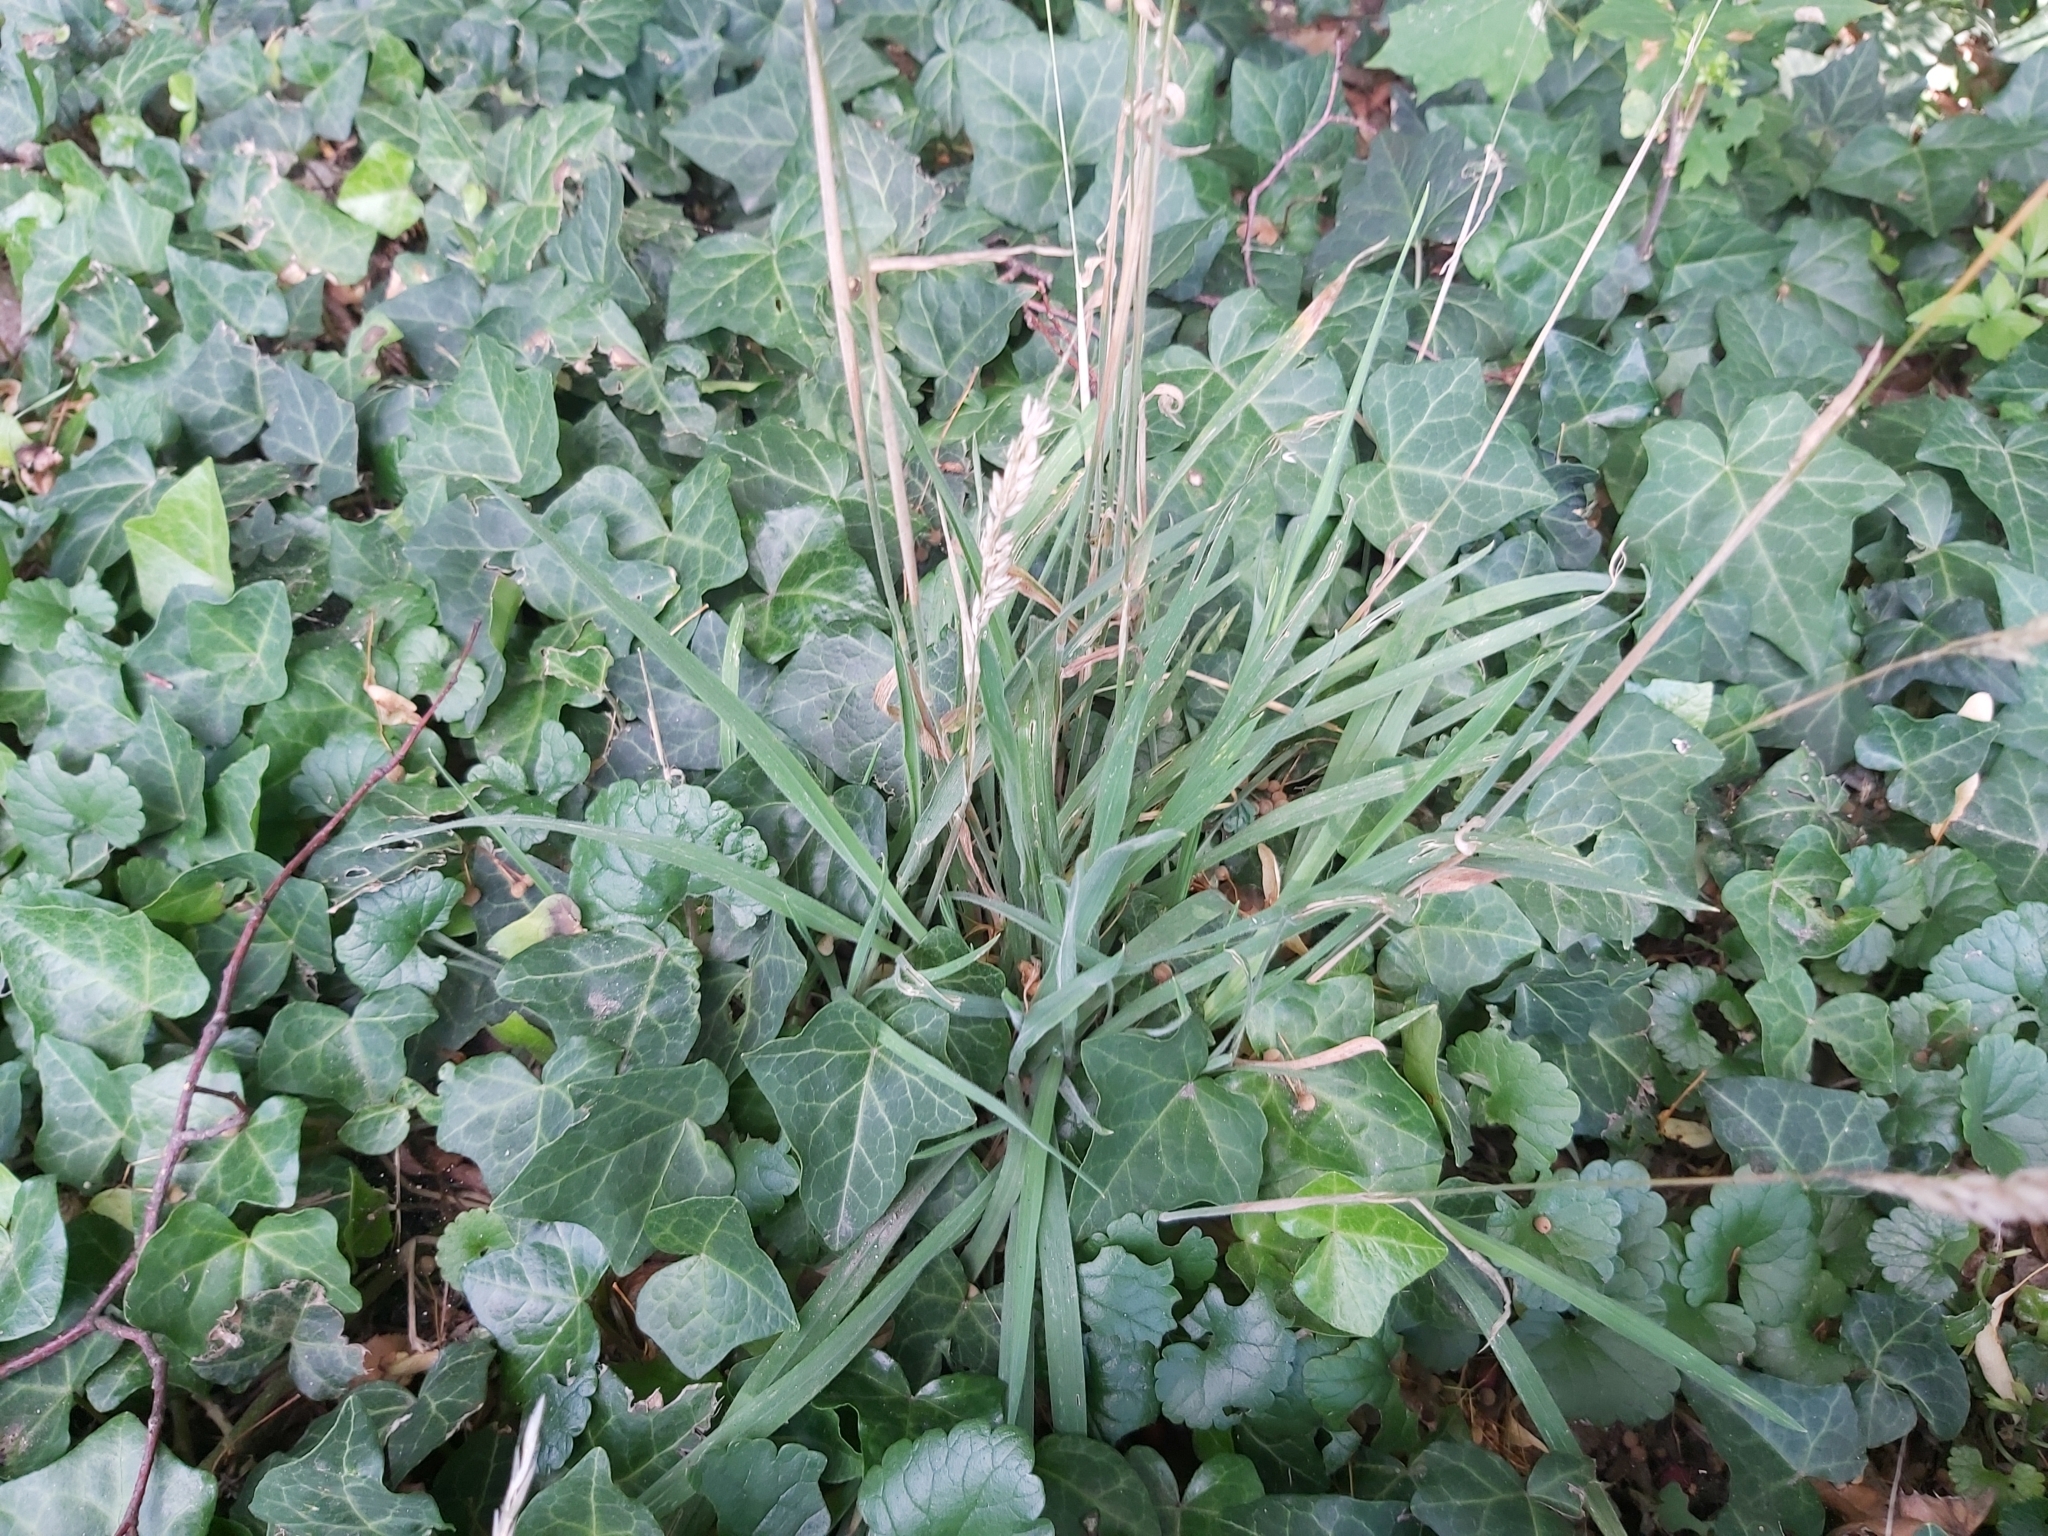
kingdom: Plantae
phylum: Tracheophyta
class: Liliopsida
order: Poales
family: Poaceae
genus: Holcus
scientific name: Holcus lanatus
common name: Yorkshire-fog
